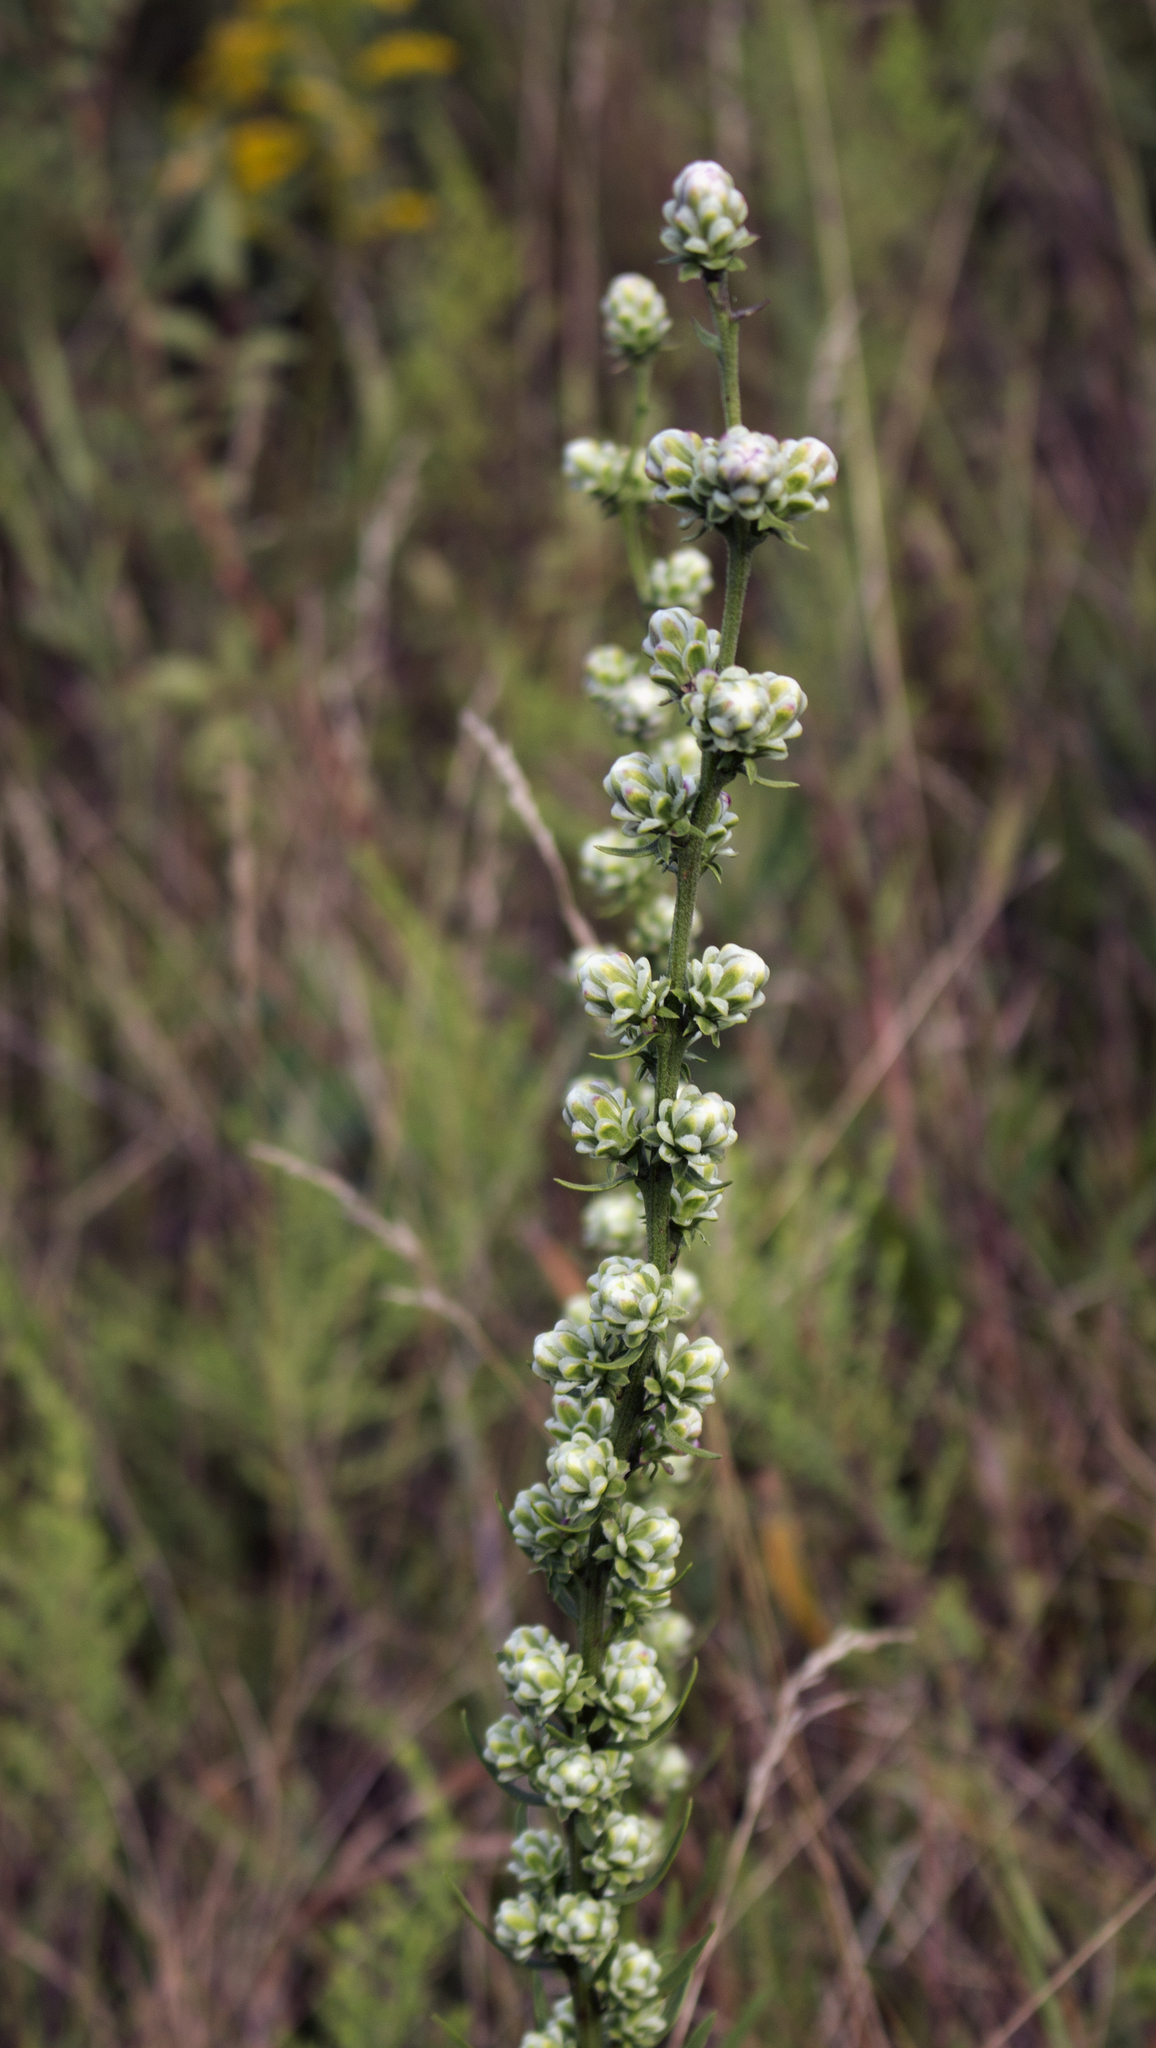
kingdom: Plantae
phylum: Tracheophyta
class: Magnoliopsida
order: Asterales
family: Asteraceae
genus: Liatris
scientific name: Liatris aspera
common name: Lacerate blazing-star
